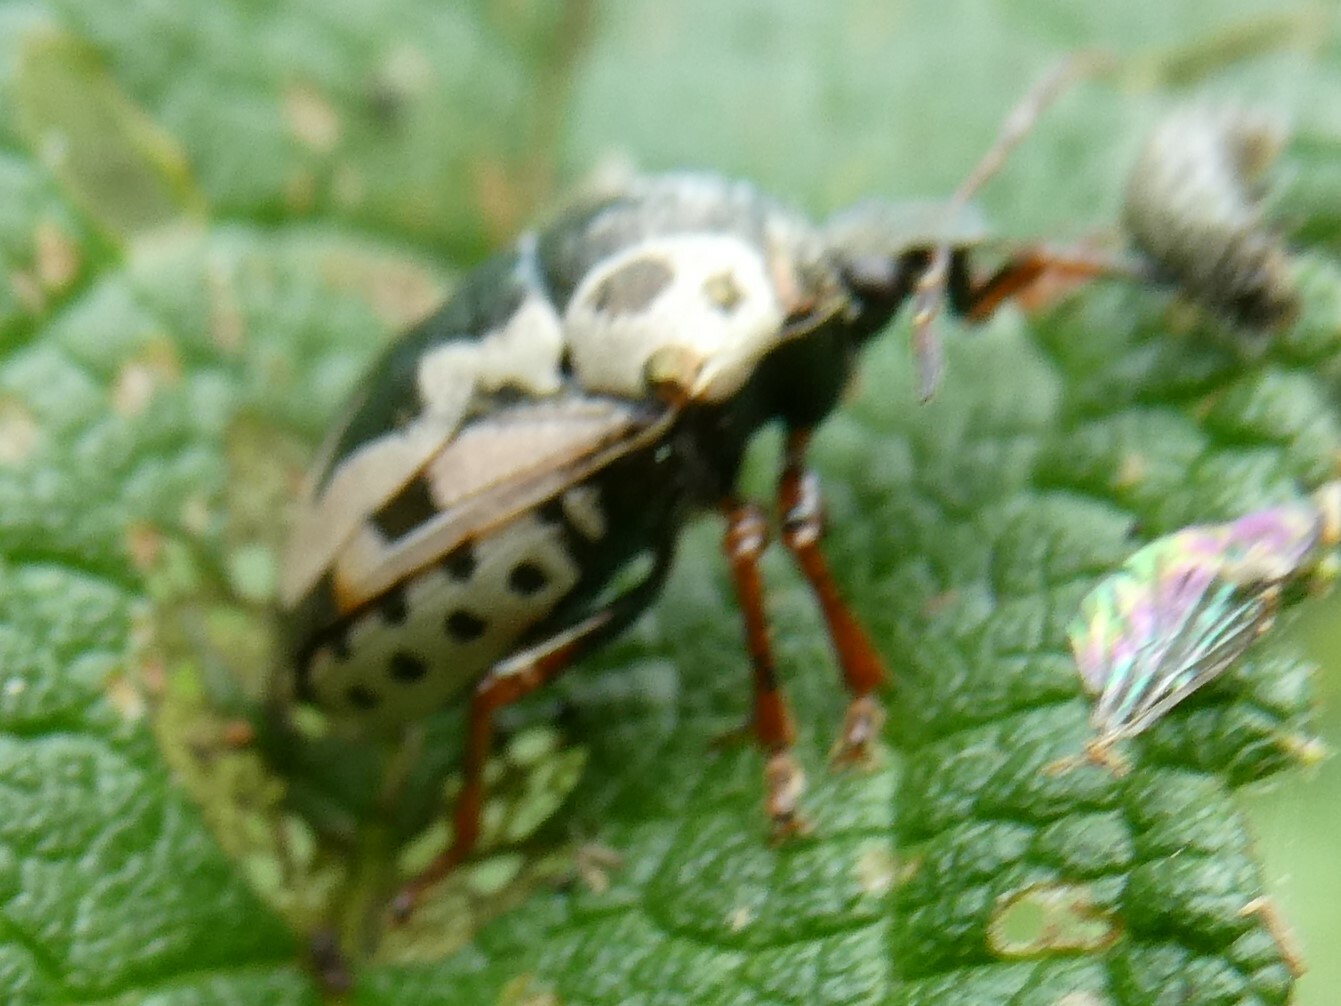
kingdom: Animalia
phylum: Arthropoda
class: Insecta
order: Hemiptera
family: Pentatomidae
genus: Stiretrus
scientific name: Stiretrus anchorago
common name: Anchor stink bug
